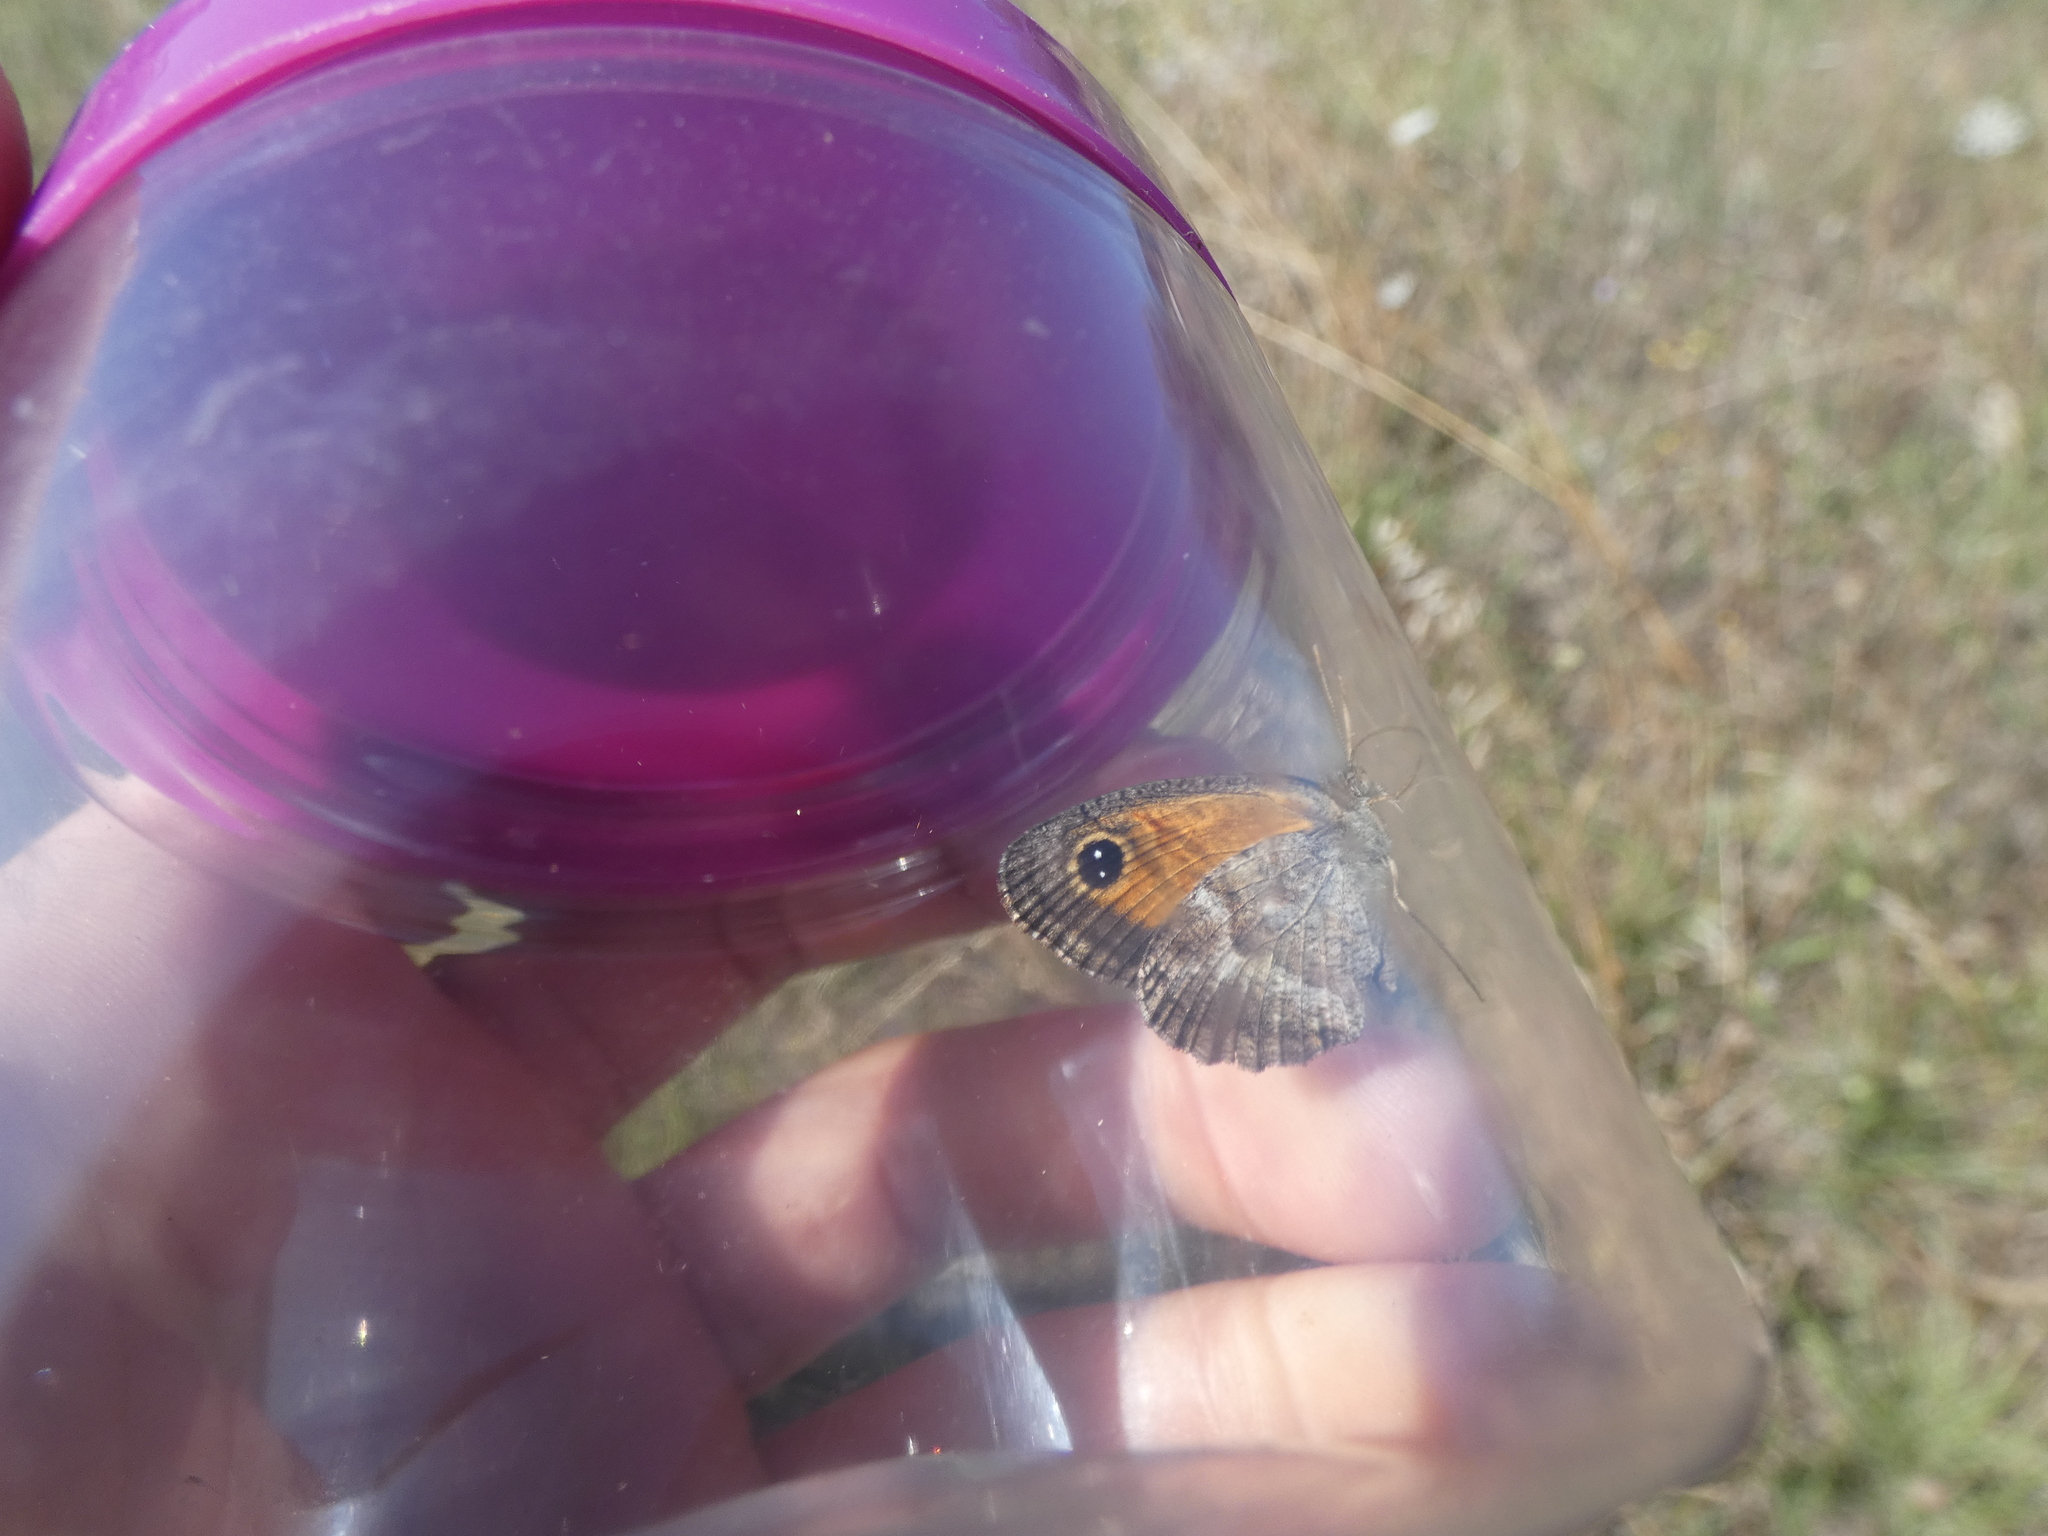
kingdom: Animalia
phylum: Arthropoda
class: Insecta
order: Lepidoptera
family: Nymphalidae
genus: Pyronia
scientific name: Pyronia cecilia
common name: Southern gatekeeper
